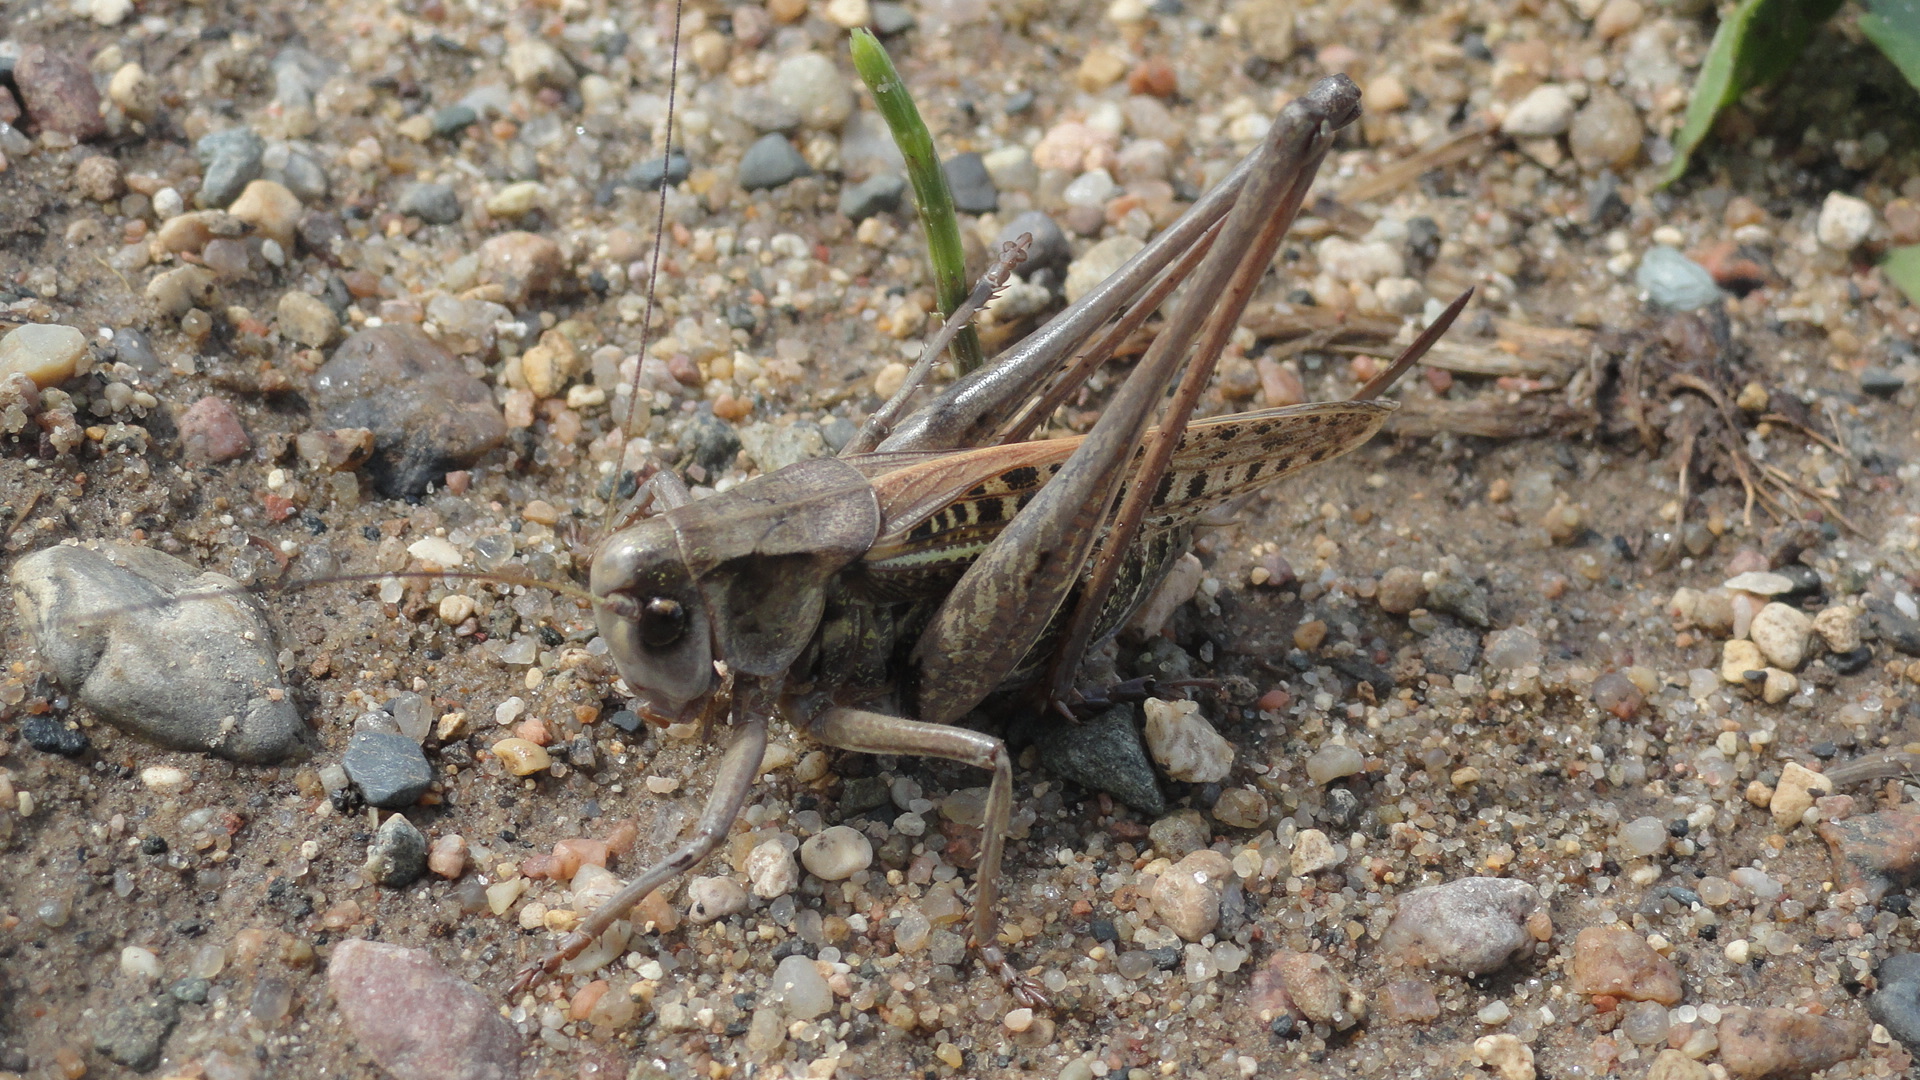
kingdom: Animalia
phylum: Arthropoda
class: Insecta
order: Orthoptera
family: Tettigoniidae
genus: Decticus
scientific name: Decticus verrucivorus
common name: Wart-biter
